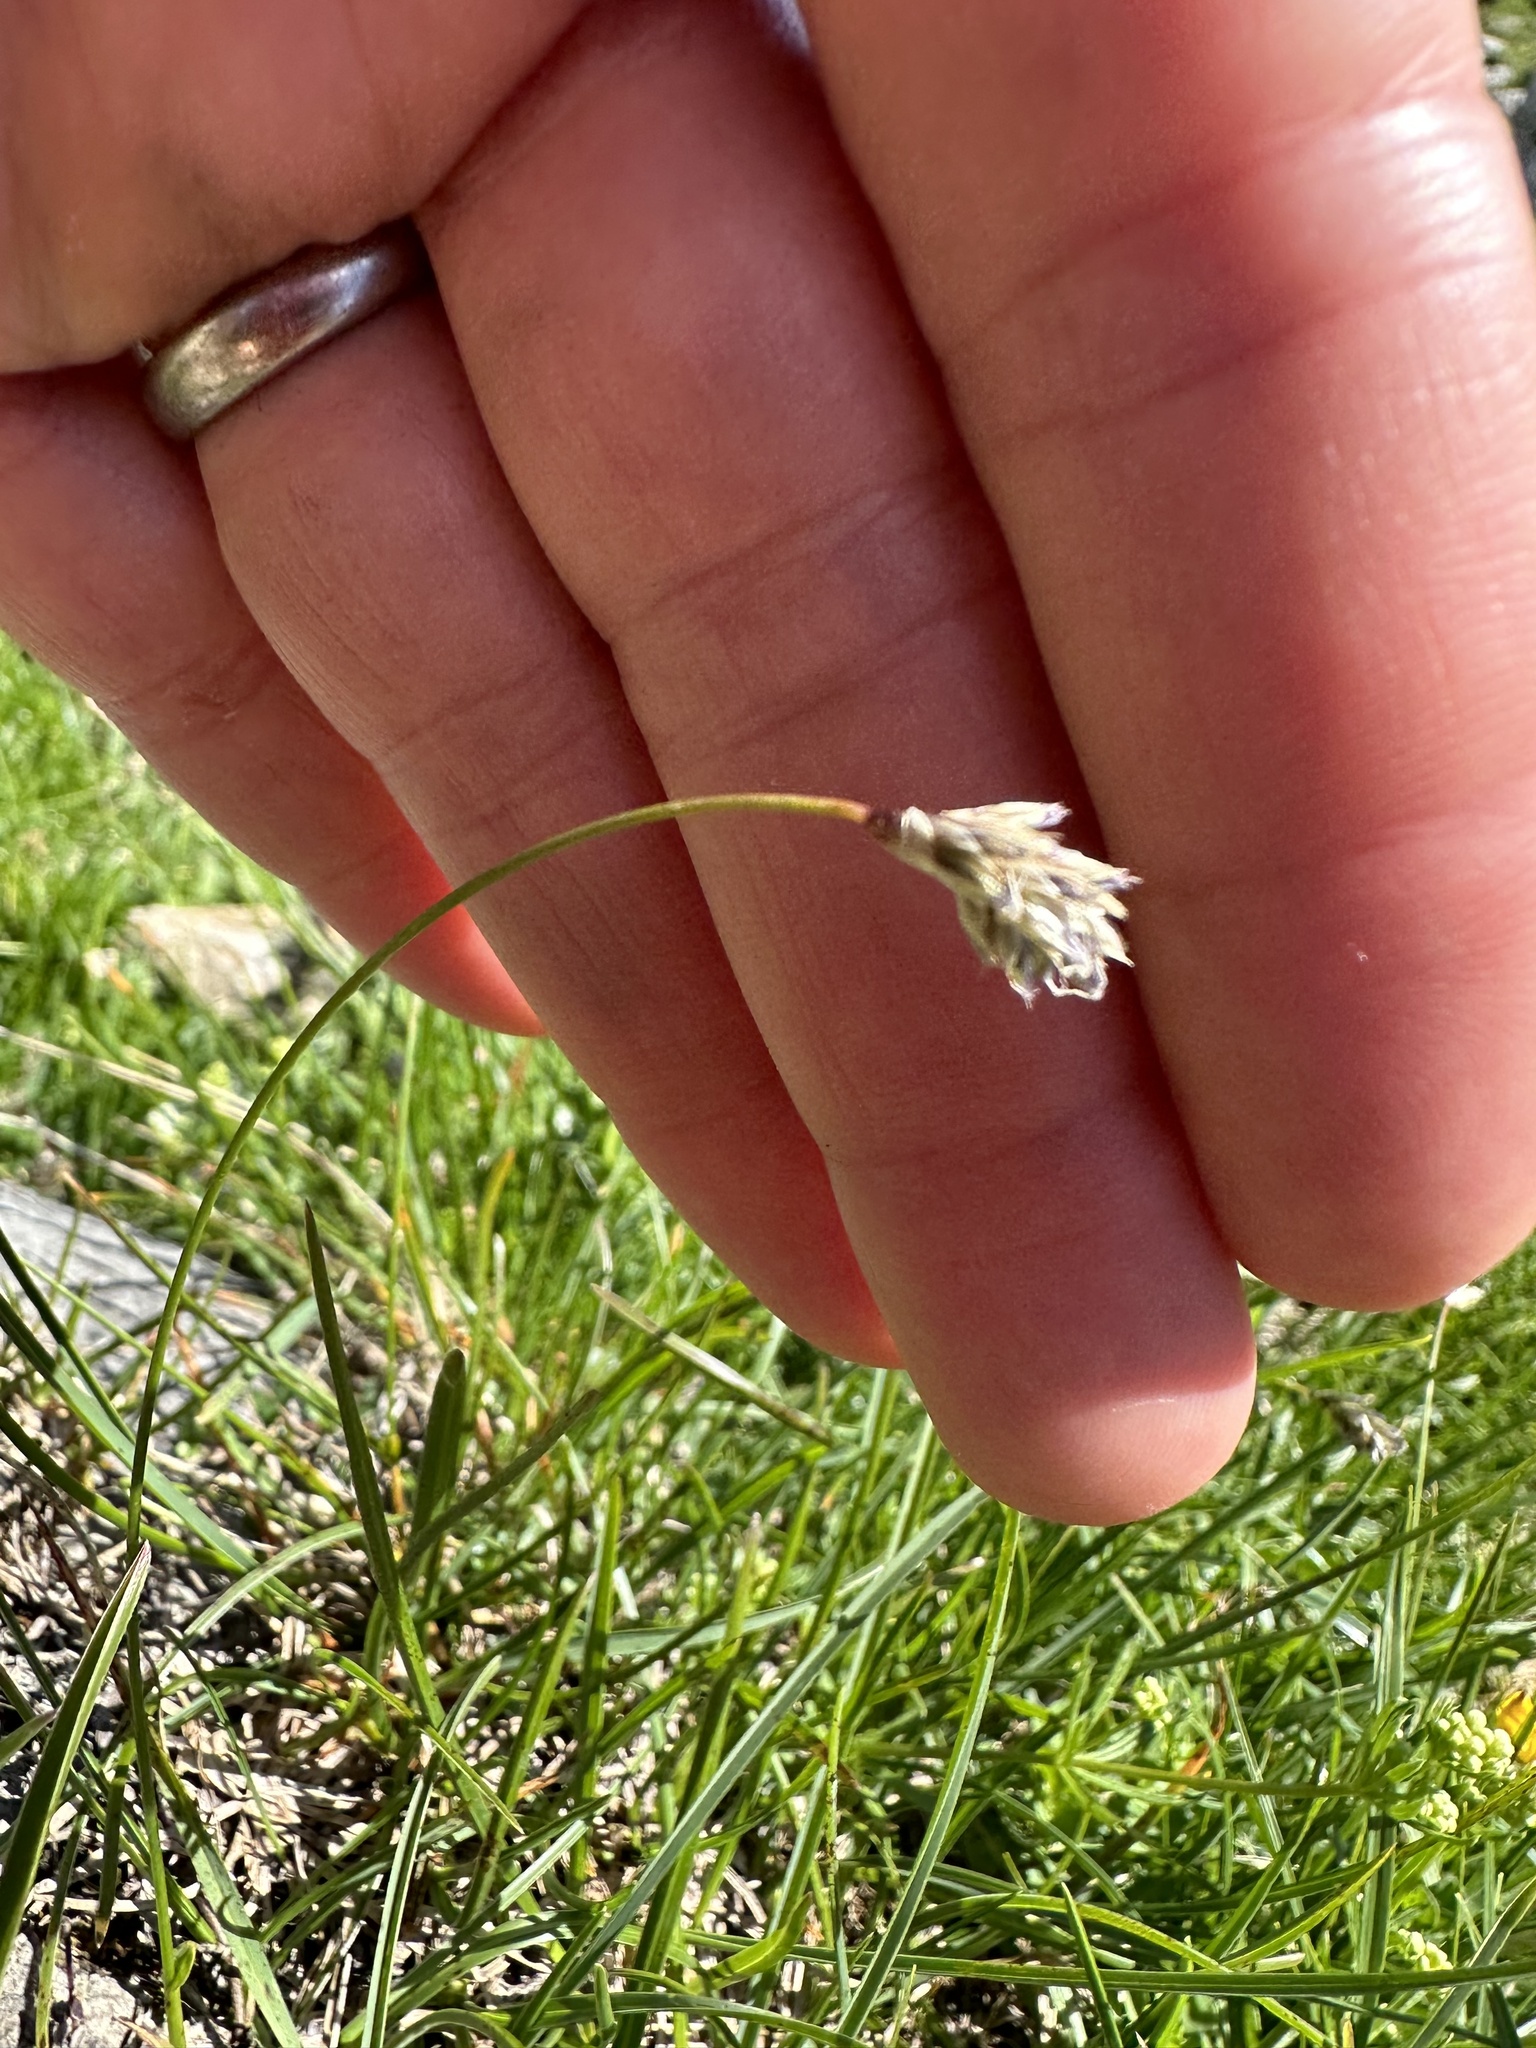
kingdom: Plantae
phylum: Tracheophyta
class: Liliopsida
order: Poales
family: Poaceae
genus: Sesleria
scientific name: Sesleria caerulea
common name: Blue moor-grass
